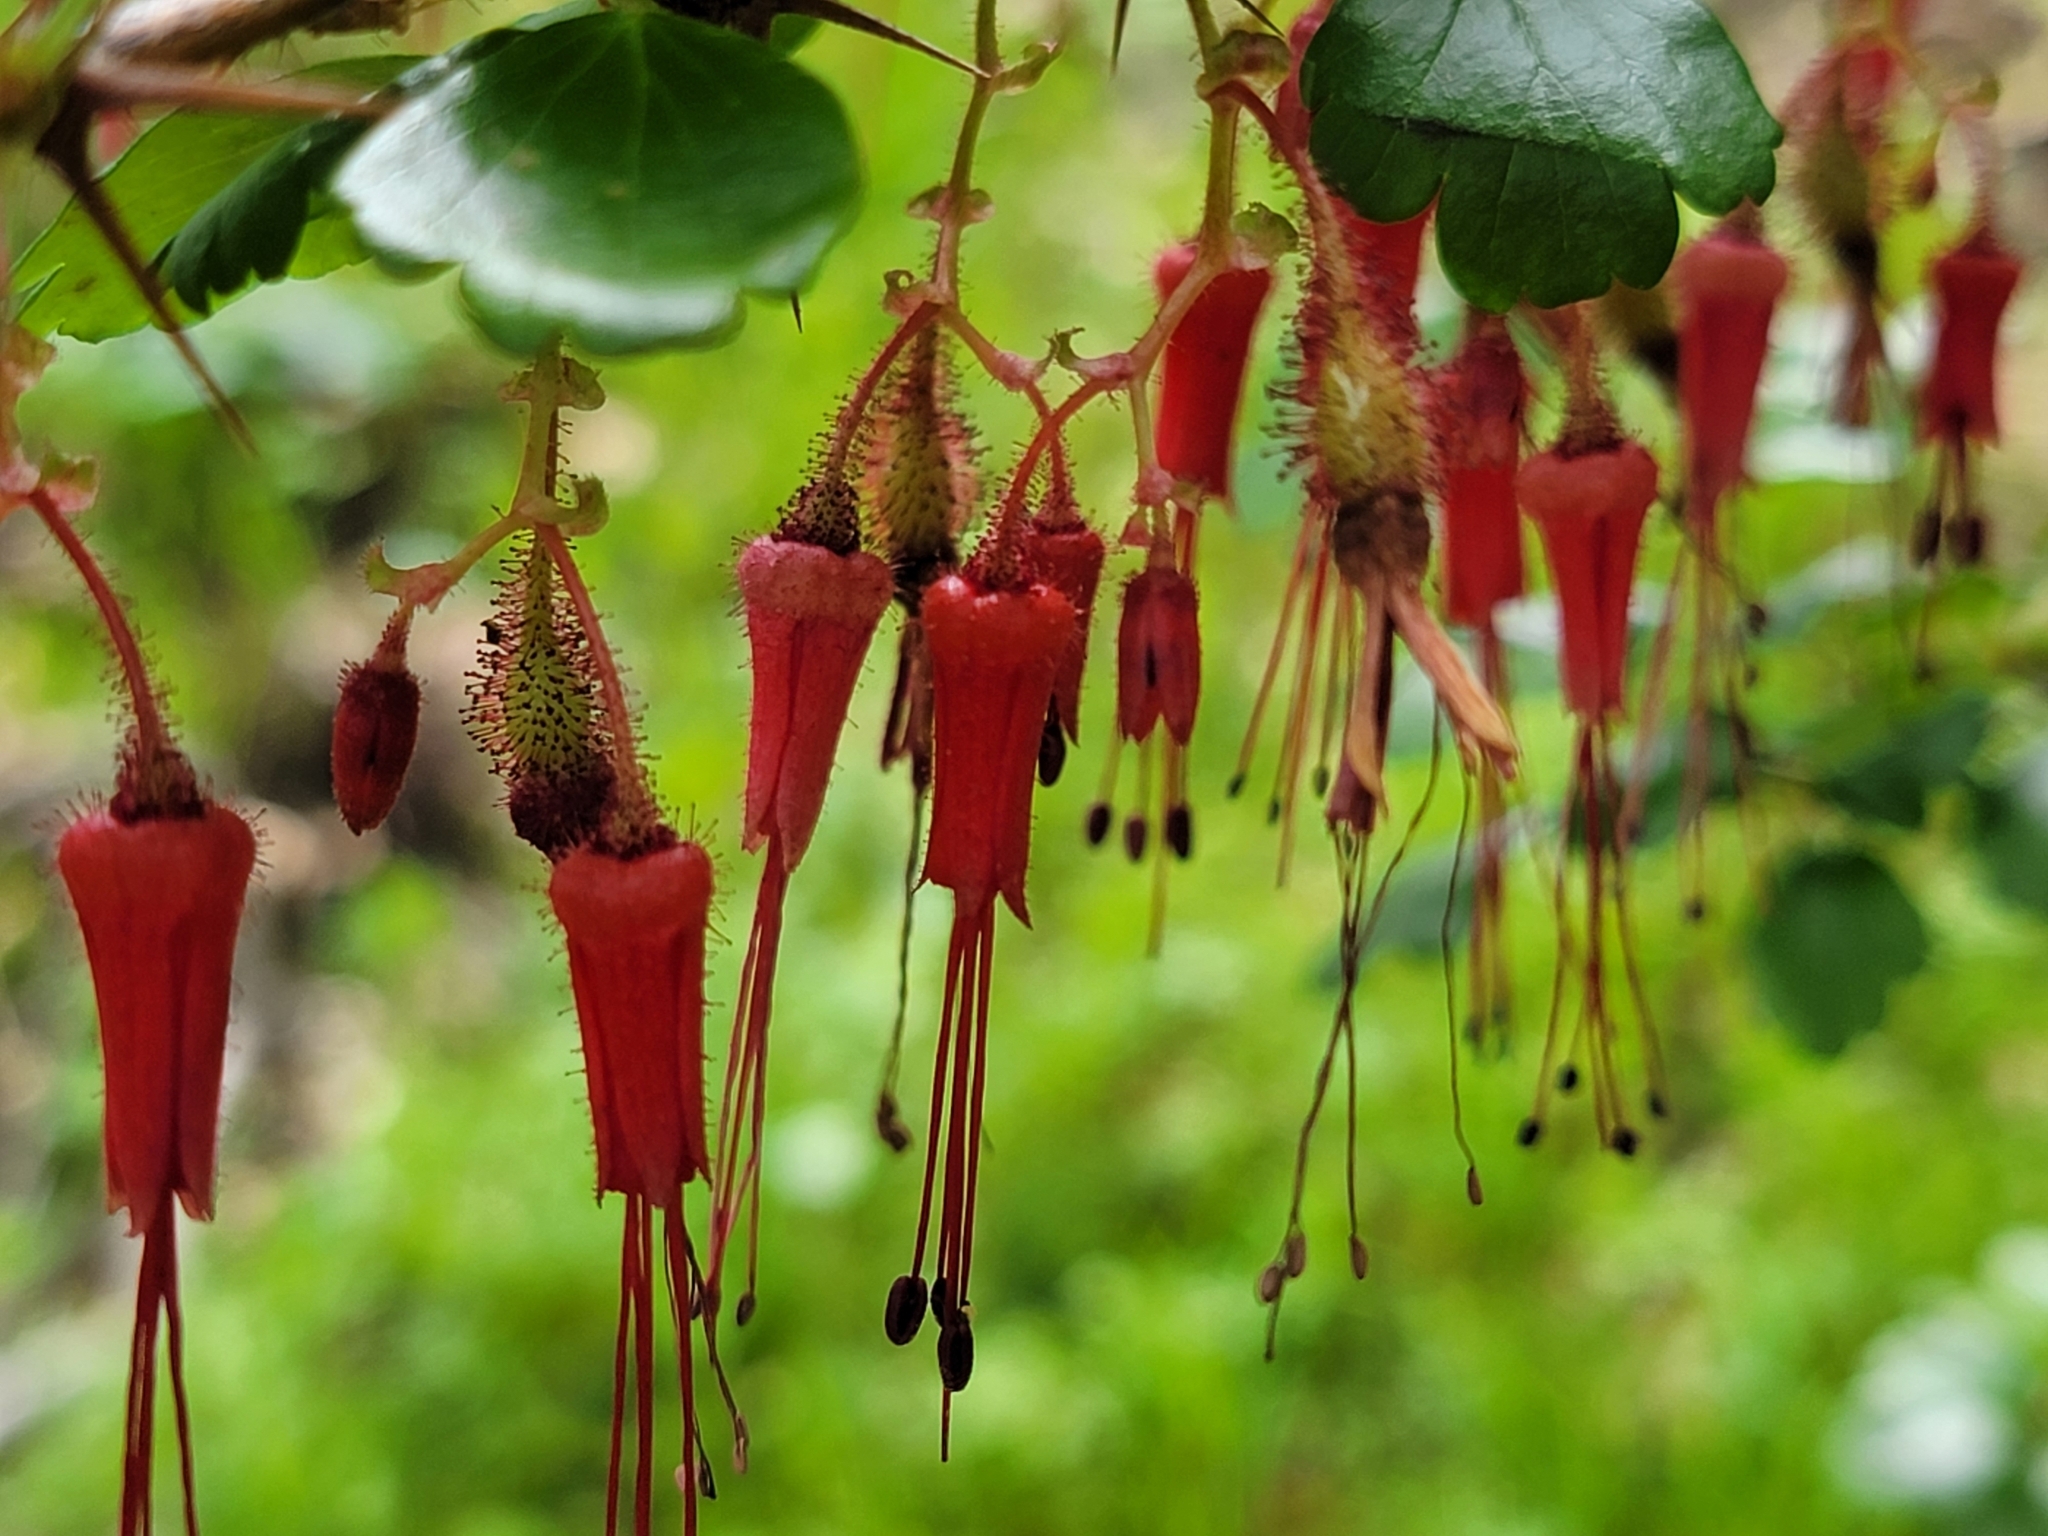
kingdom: Plantae
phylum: Tracheophyta
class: Magnoliopsida
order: Saxifragales
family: Grossulariaceae
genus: Ribes
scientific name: Ribes speciosum
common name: Fuchsia-flower gooseberry
